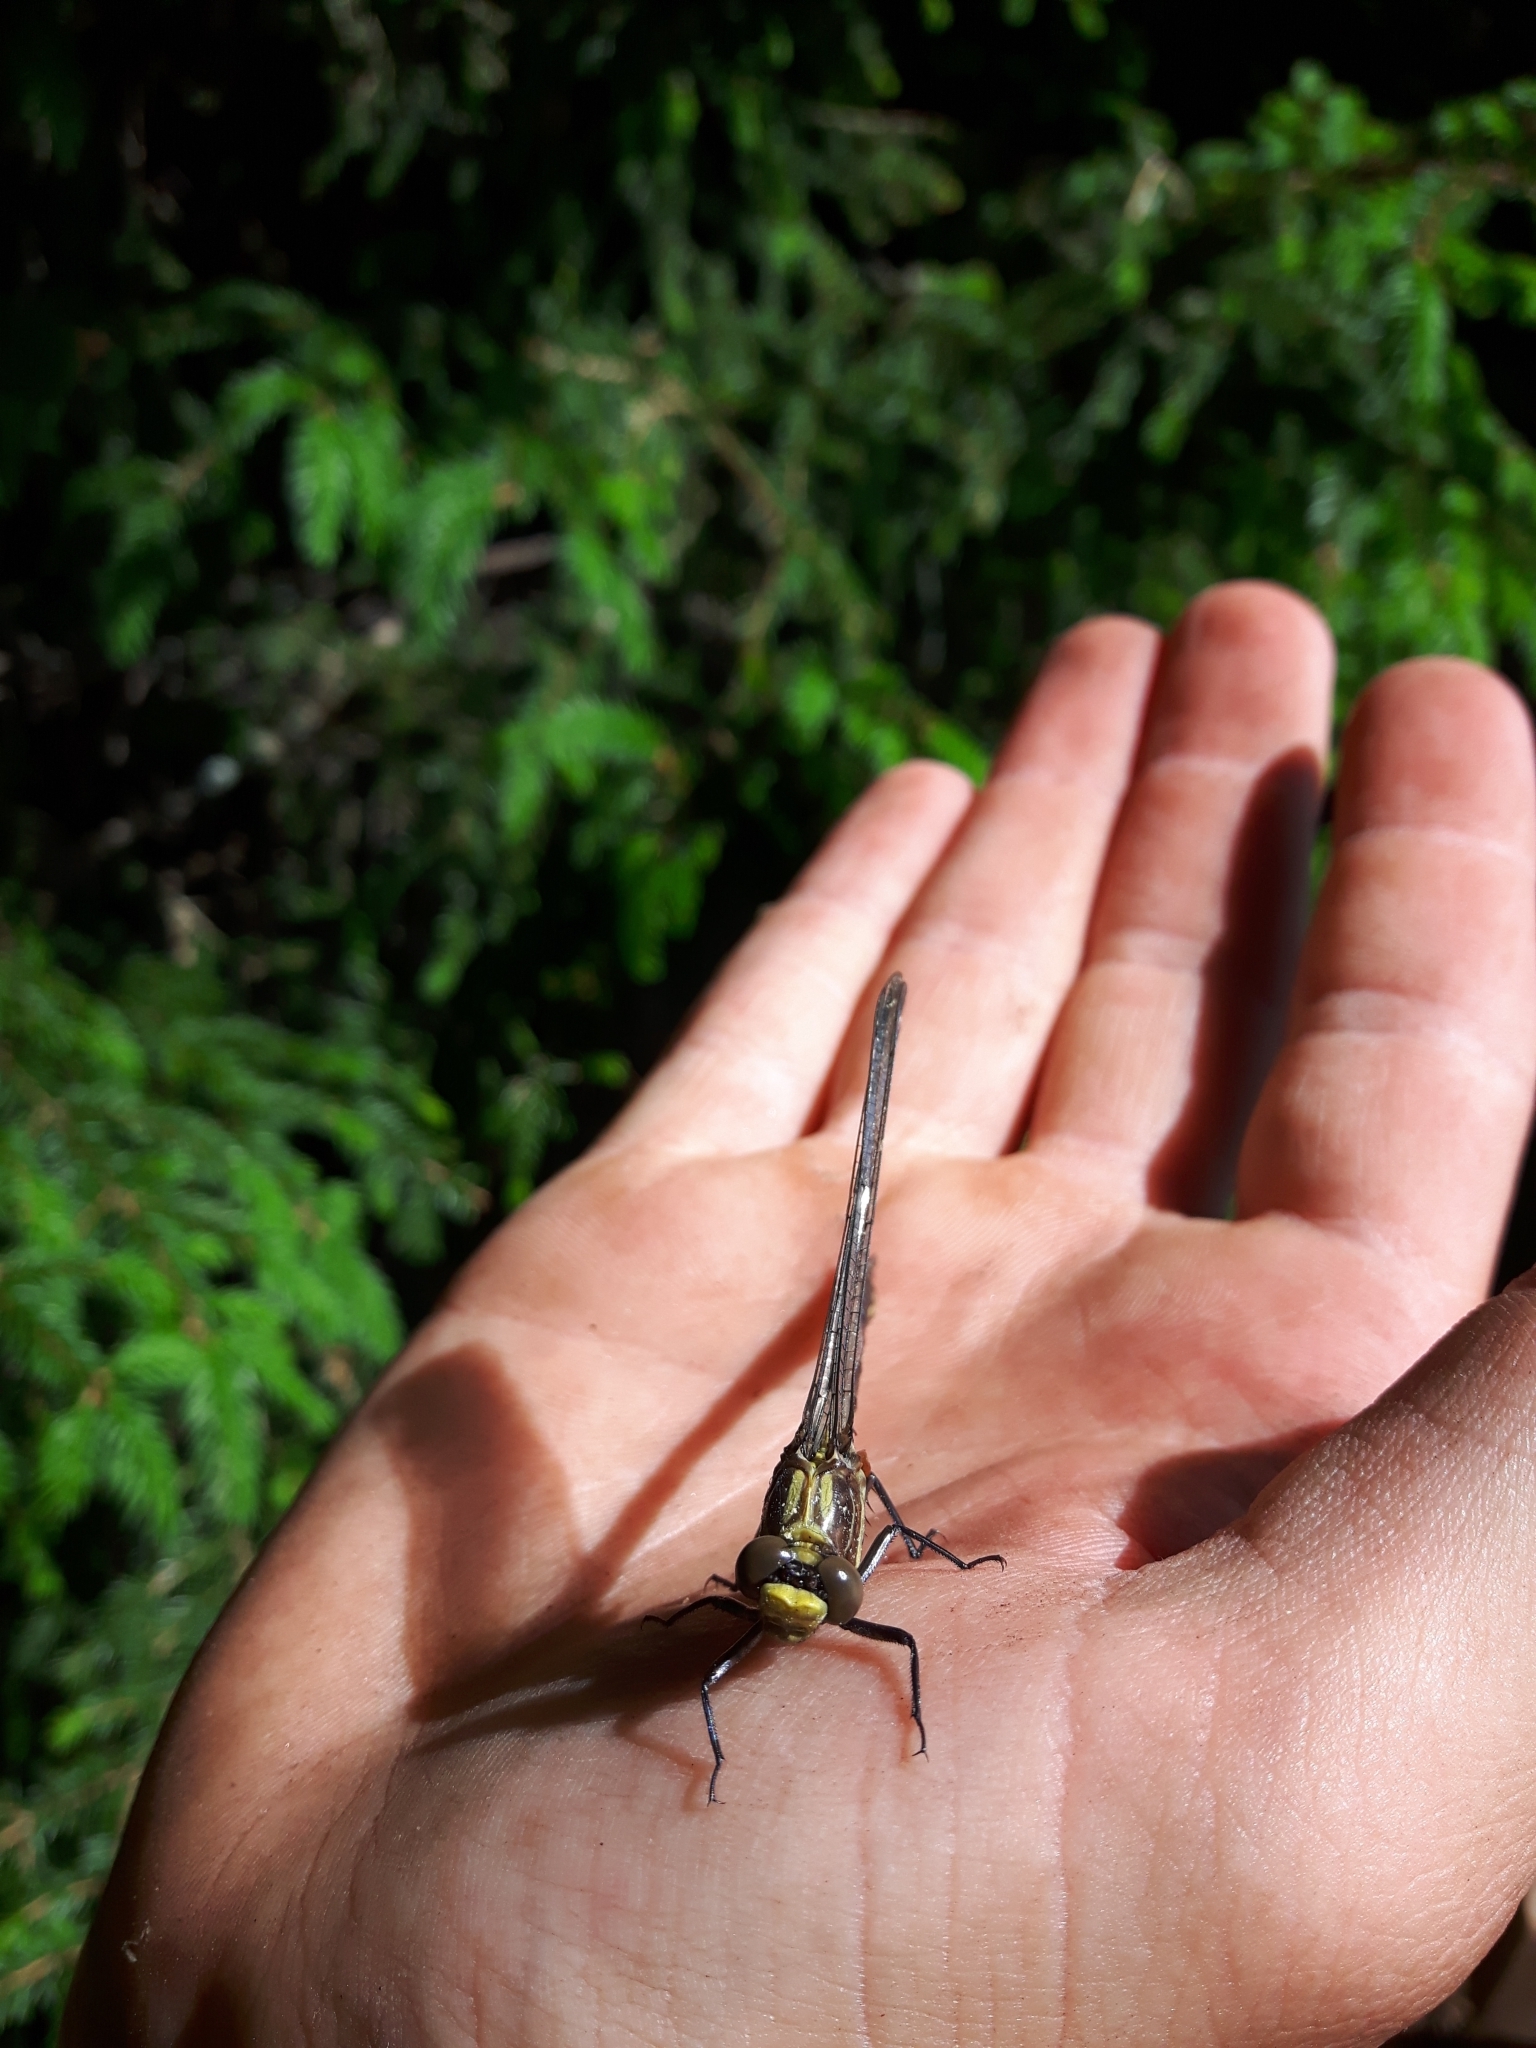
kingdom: Animalia
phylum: Arthropoda
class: Insecta
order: Odonata
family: Gomphidae
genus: Dromogomphus
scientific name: Dromogomphus spinosus
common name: Black-shouldered spinyleg
